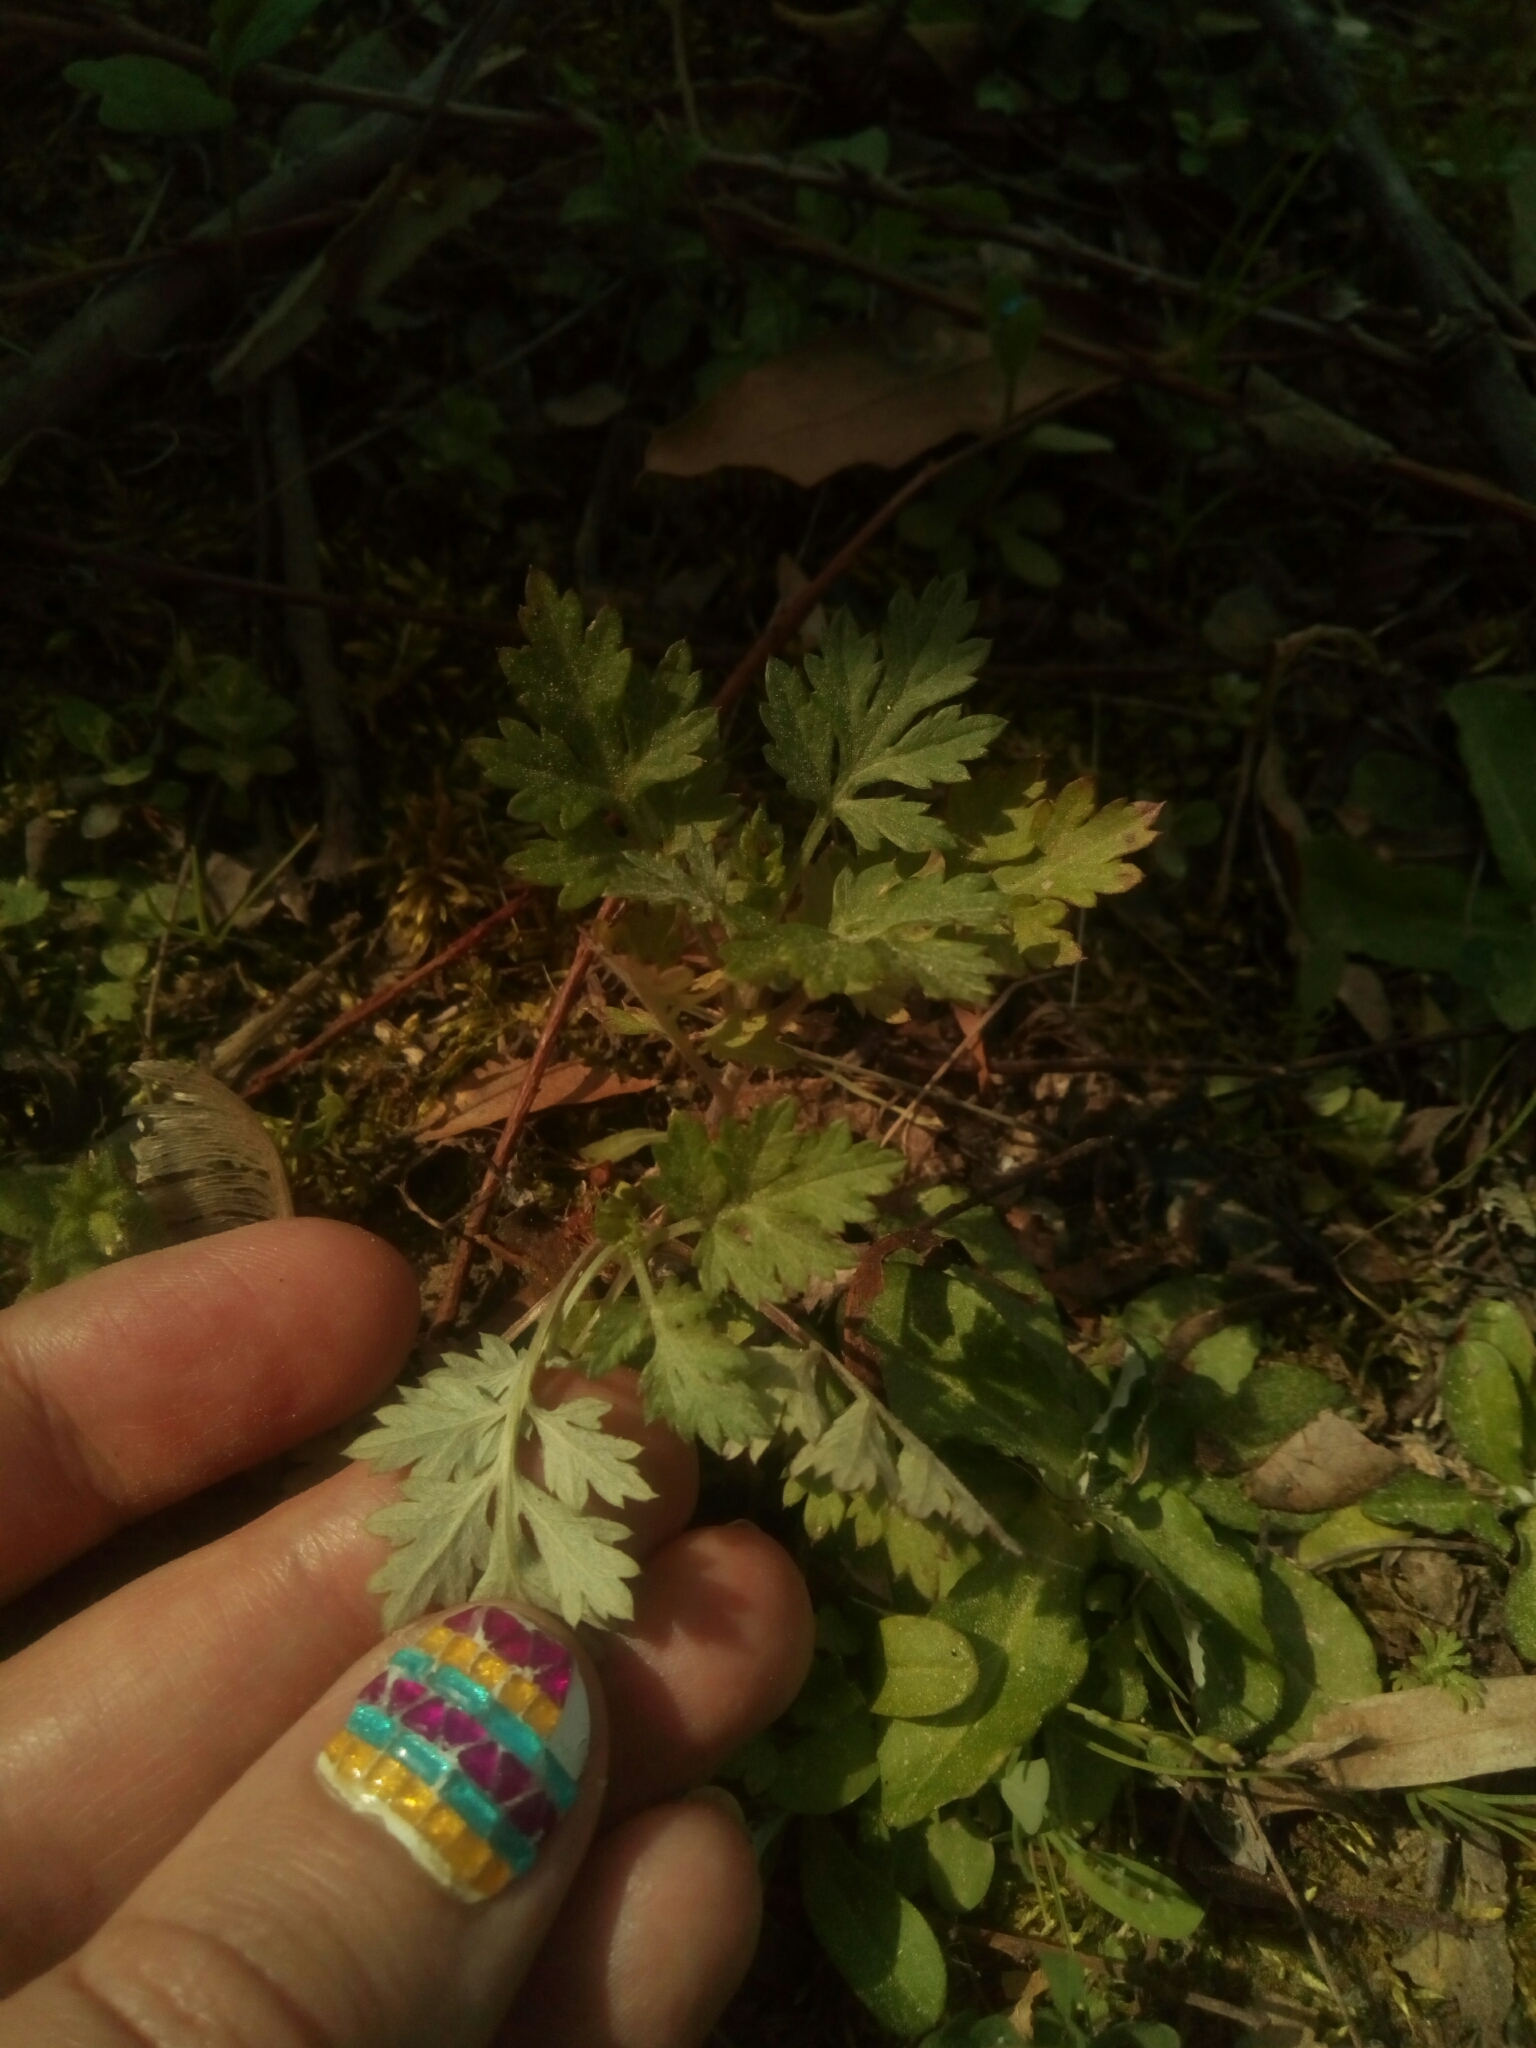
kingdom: Plantae
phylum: Tracheophyta
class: Magnoliopsida
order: Asterales
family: Asteraceae
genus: Artemisia
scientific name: Artemisia vulgaris
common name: Mugwort
